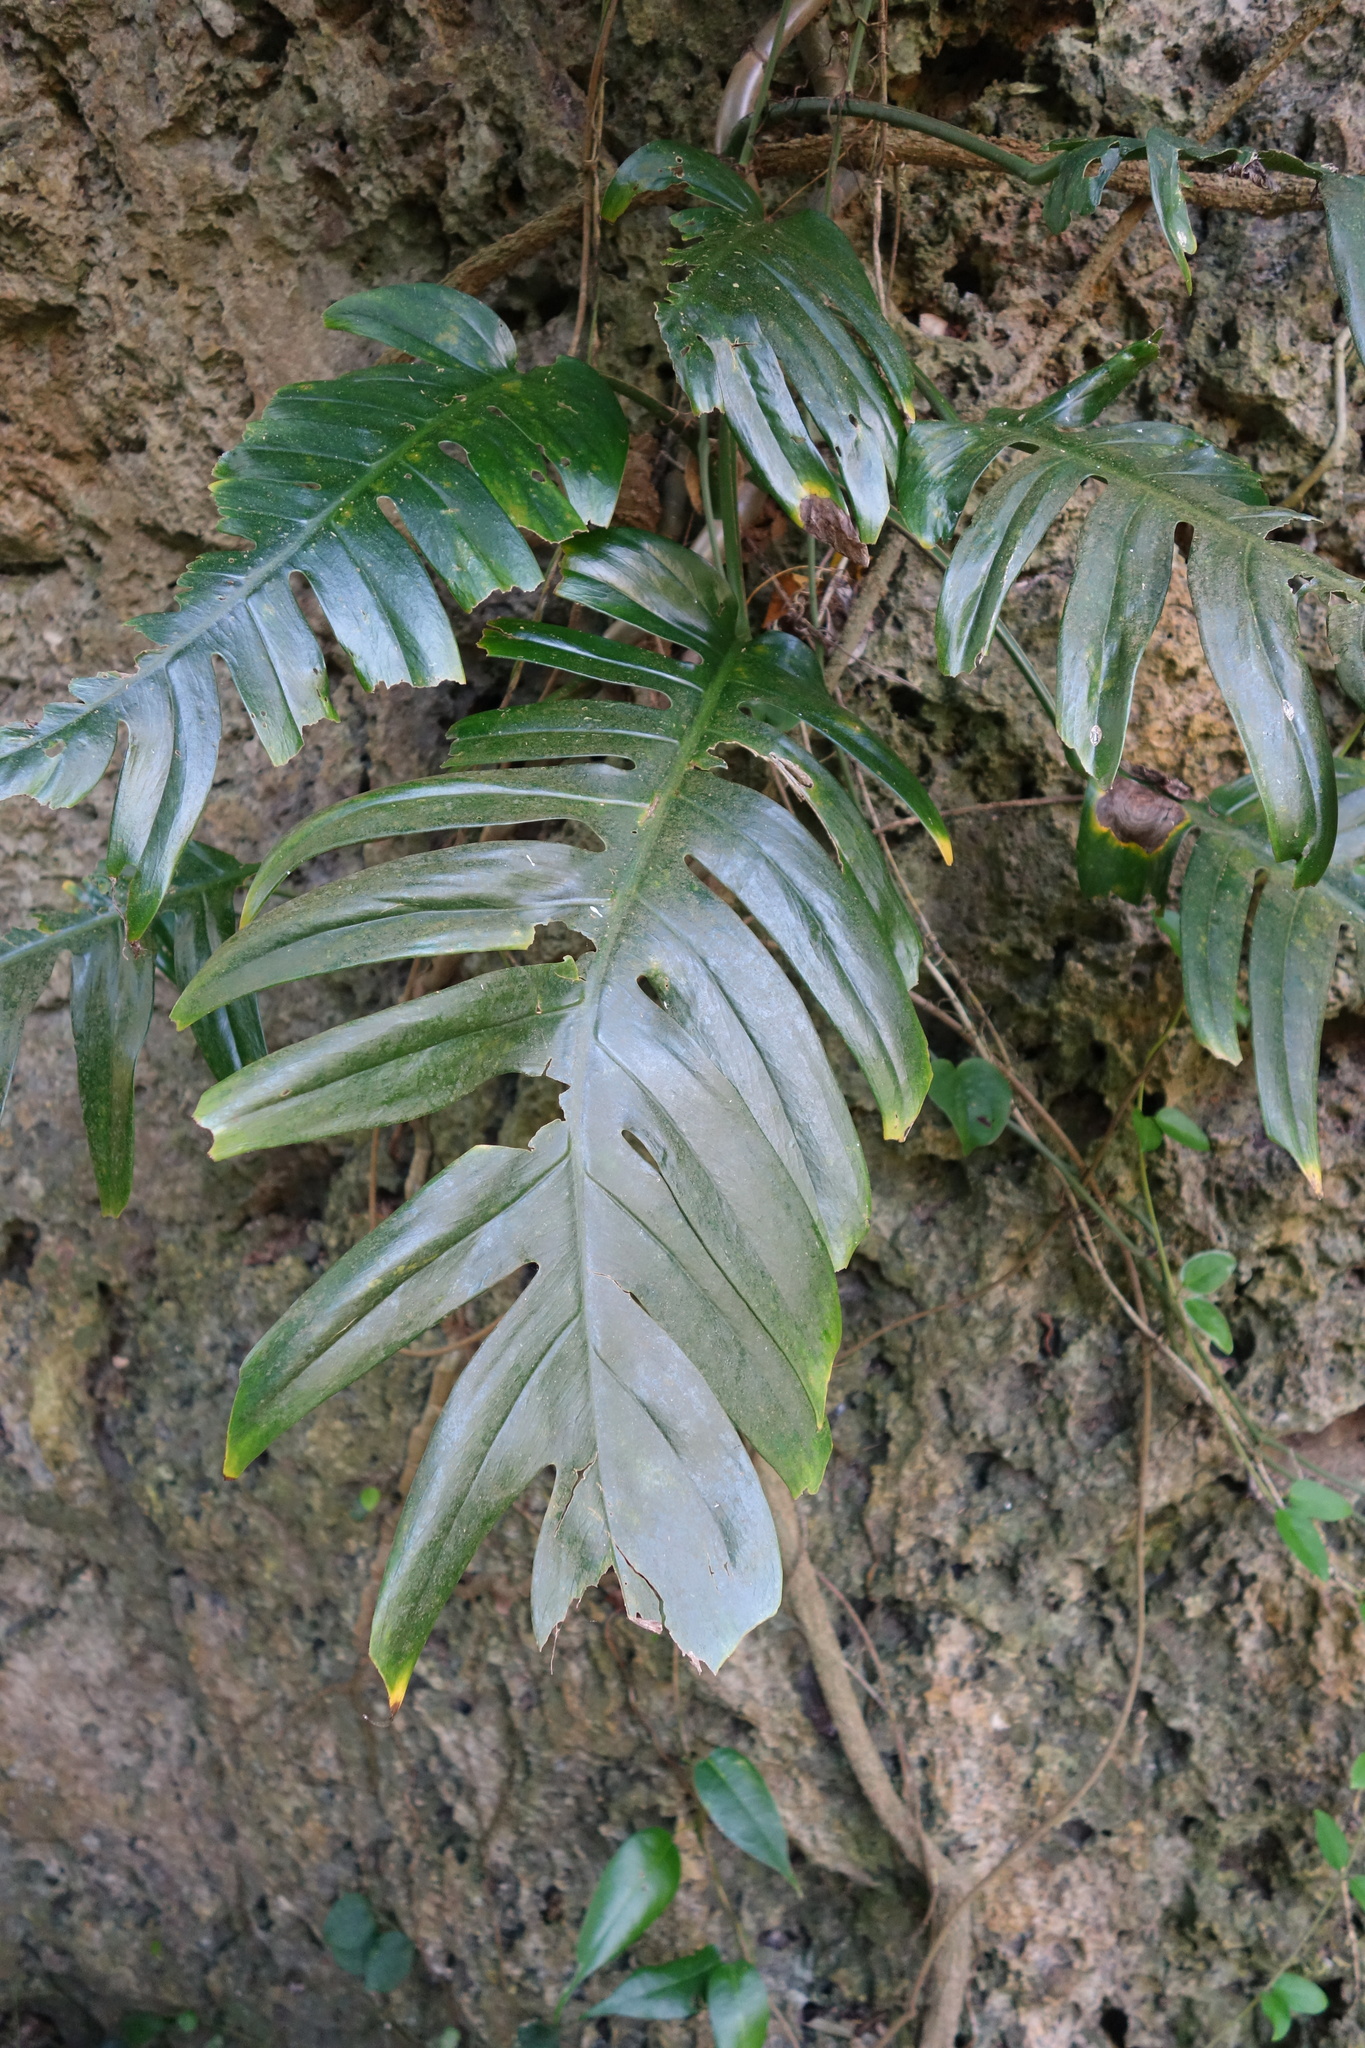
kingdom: Plantae
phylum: Tracheophyta
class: Liliopsida
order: Alismatales
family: Araceae
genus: Epipremnum
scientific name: Epipremnum pinnatum
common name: Centipede tongavine
